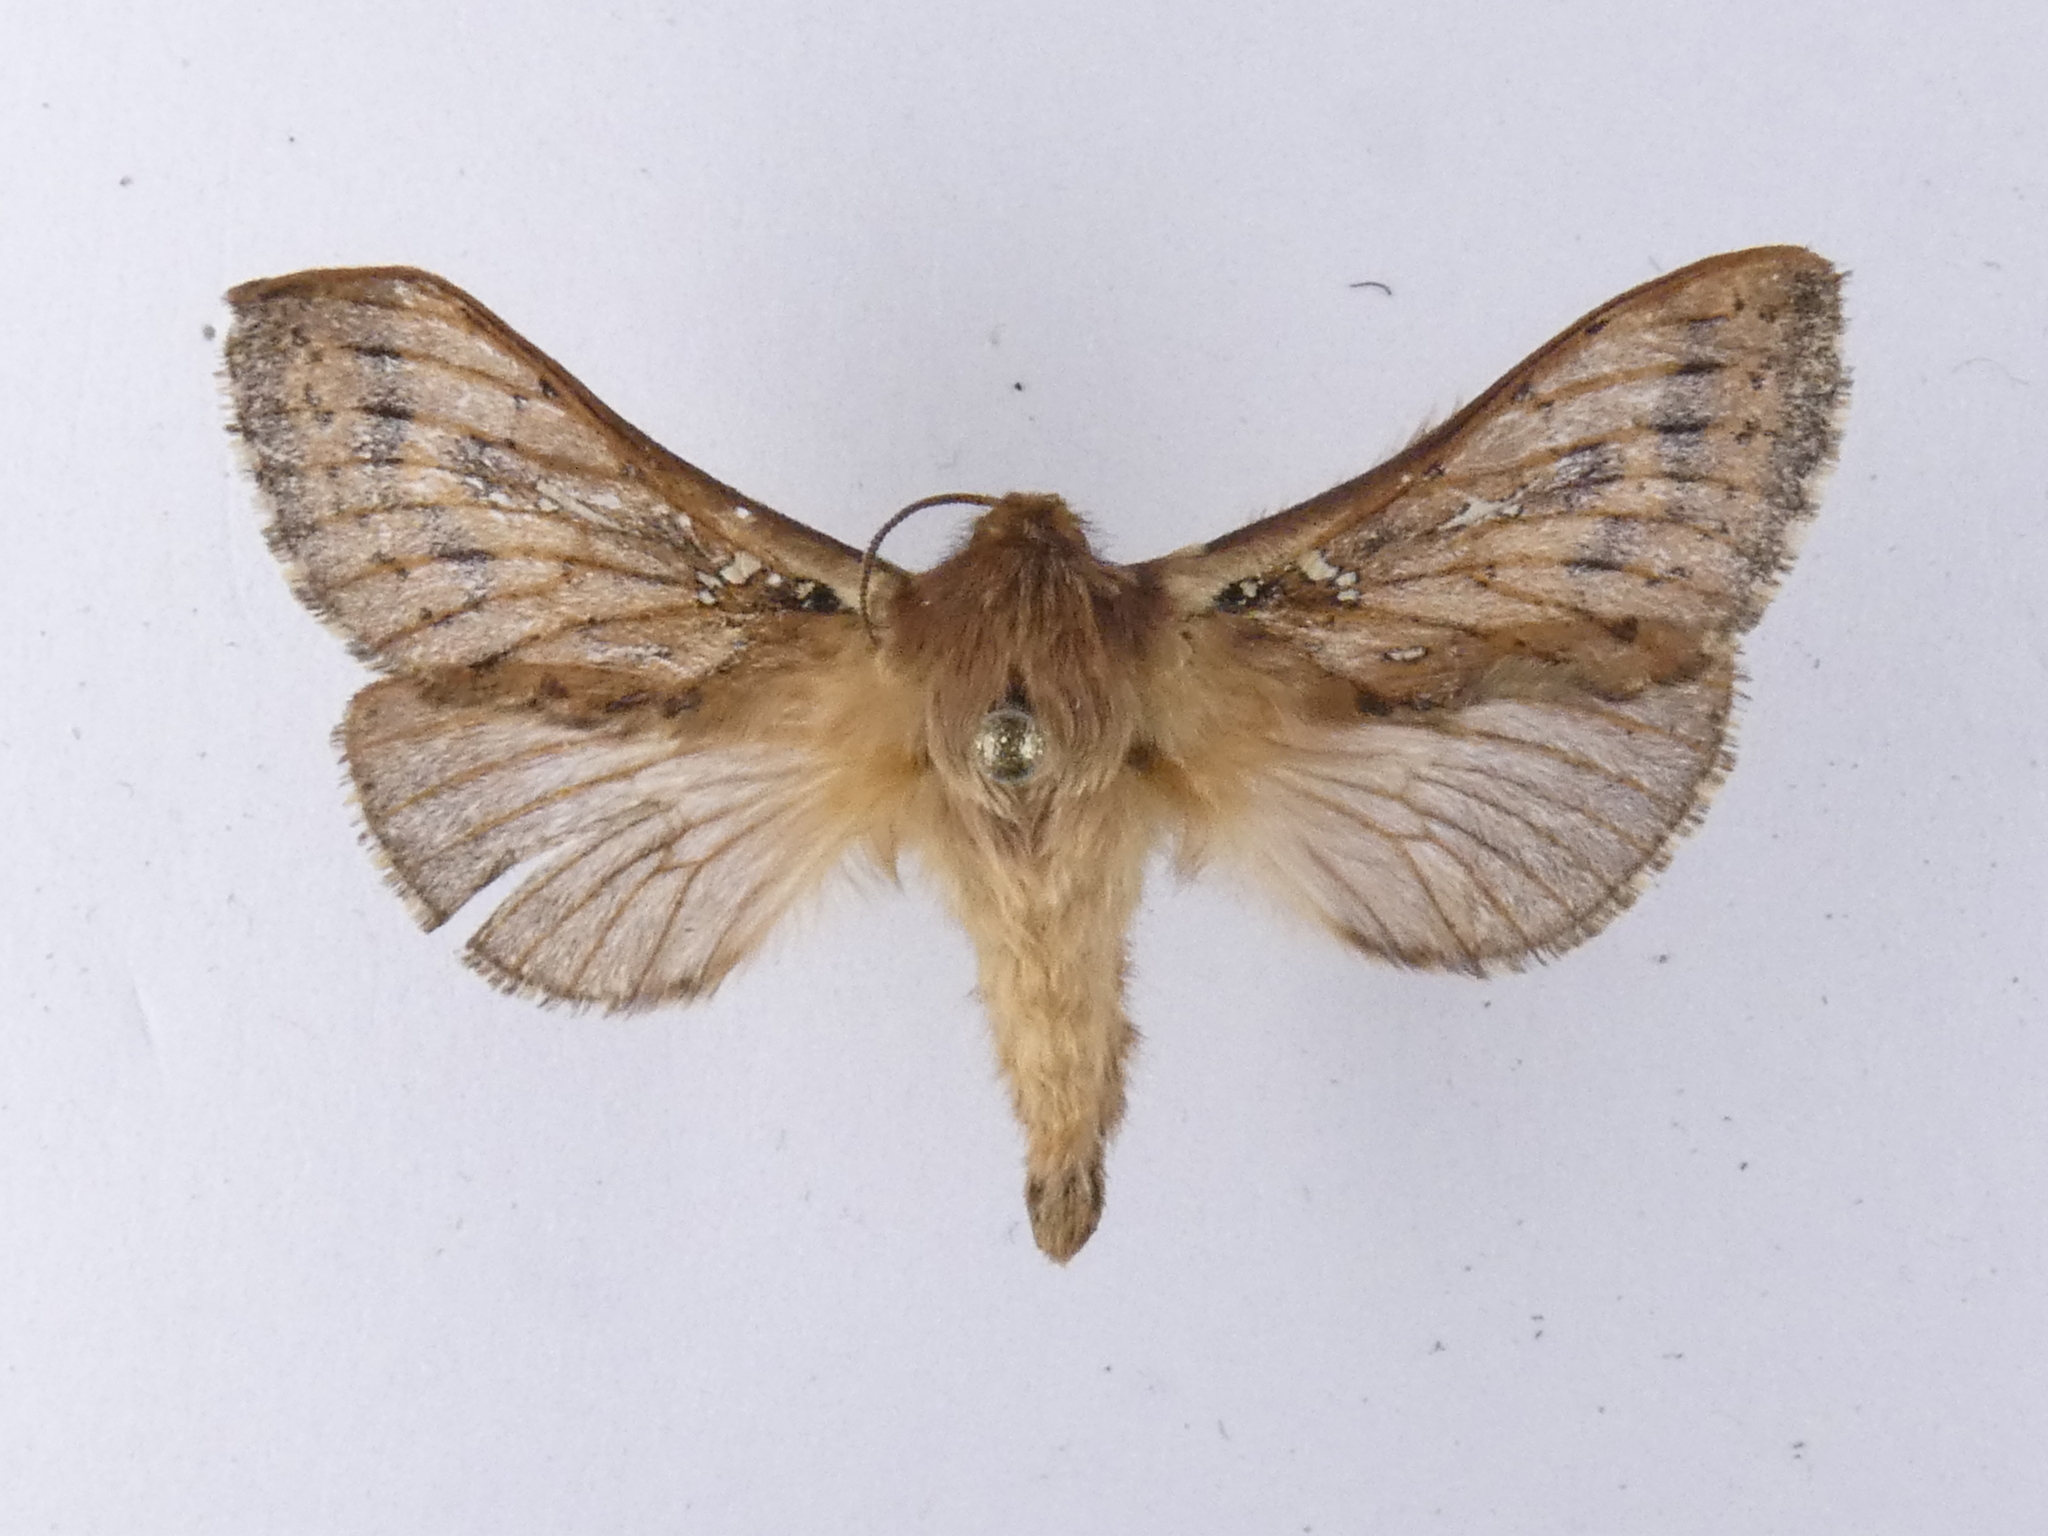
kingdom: Animalia
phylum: Arthropoda
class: Insecta
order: Lepidoptera
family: Hepialidae
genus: Wiseana
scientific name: Wiseana cervinata
